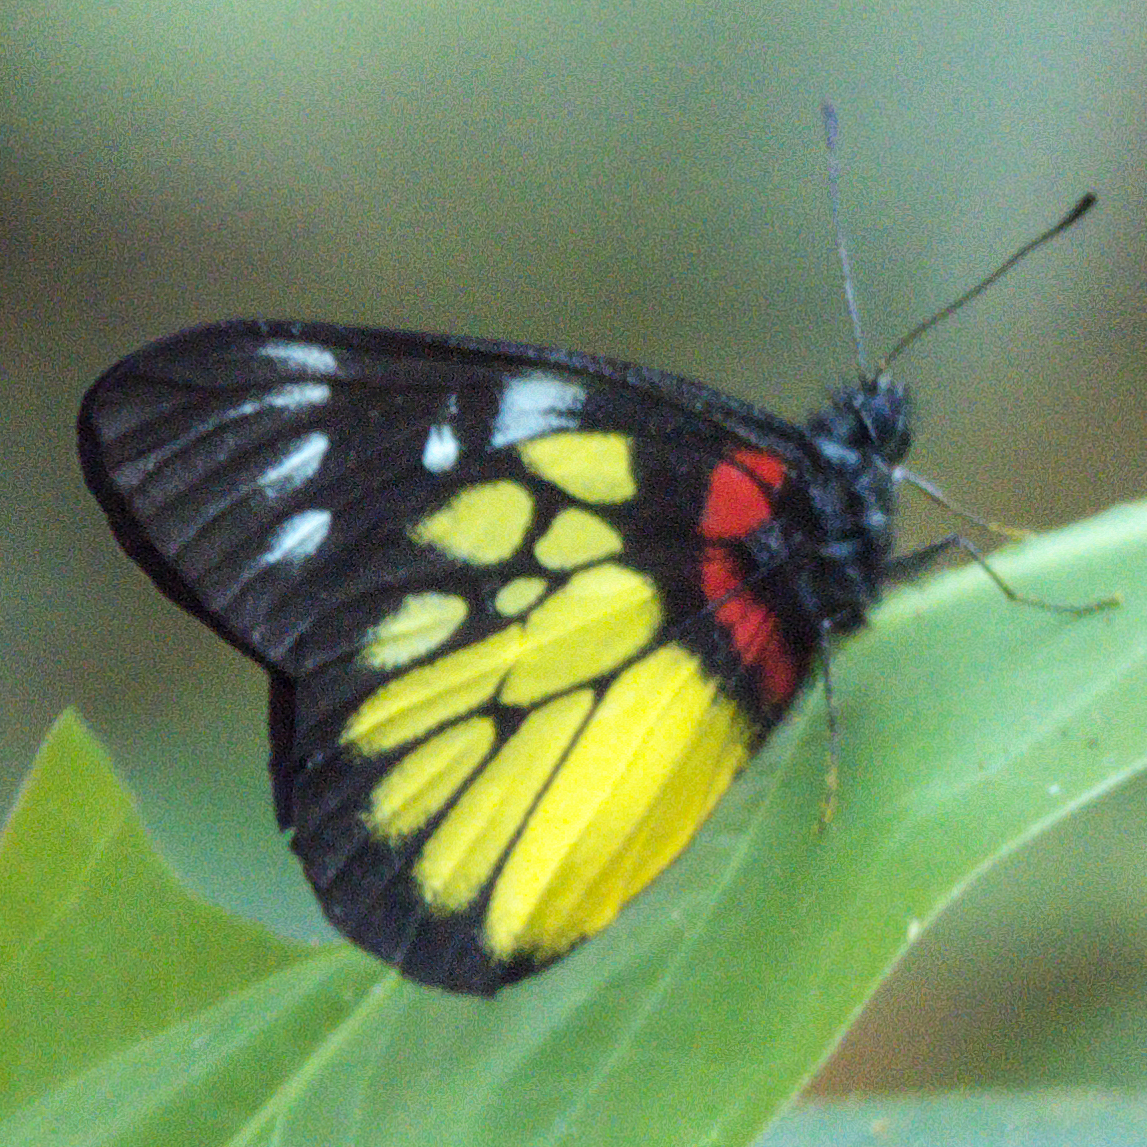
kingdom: Animalia
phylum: Arthropoda
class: Insecta
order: Lepidoptera
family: Pieridae
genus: Delias
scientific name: Delias pasithoe
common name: Red-base jezebel
